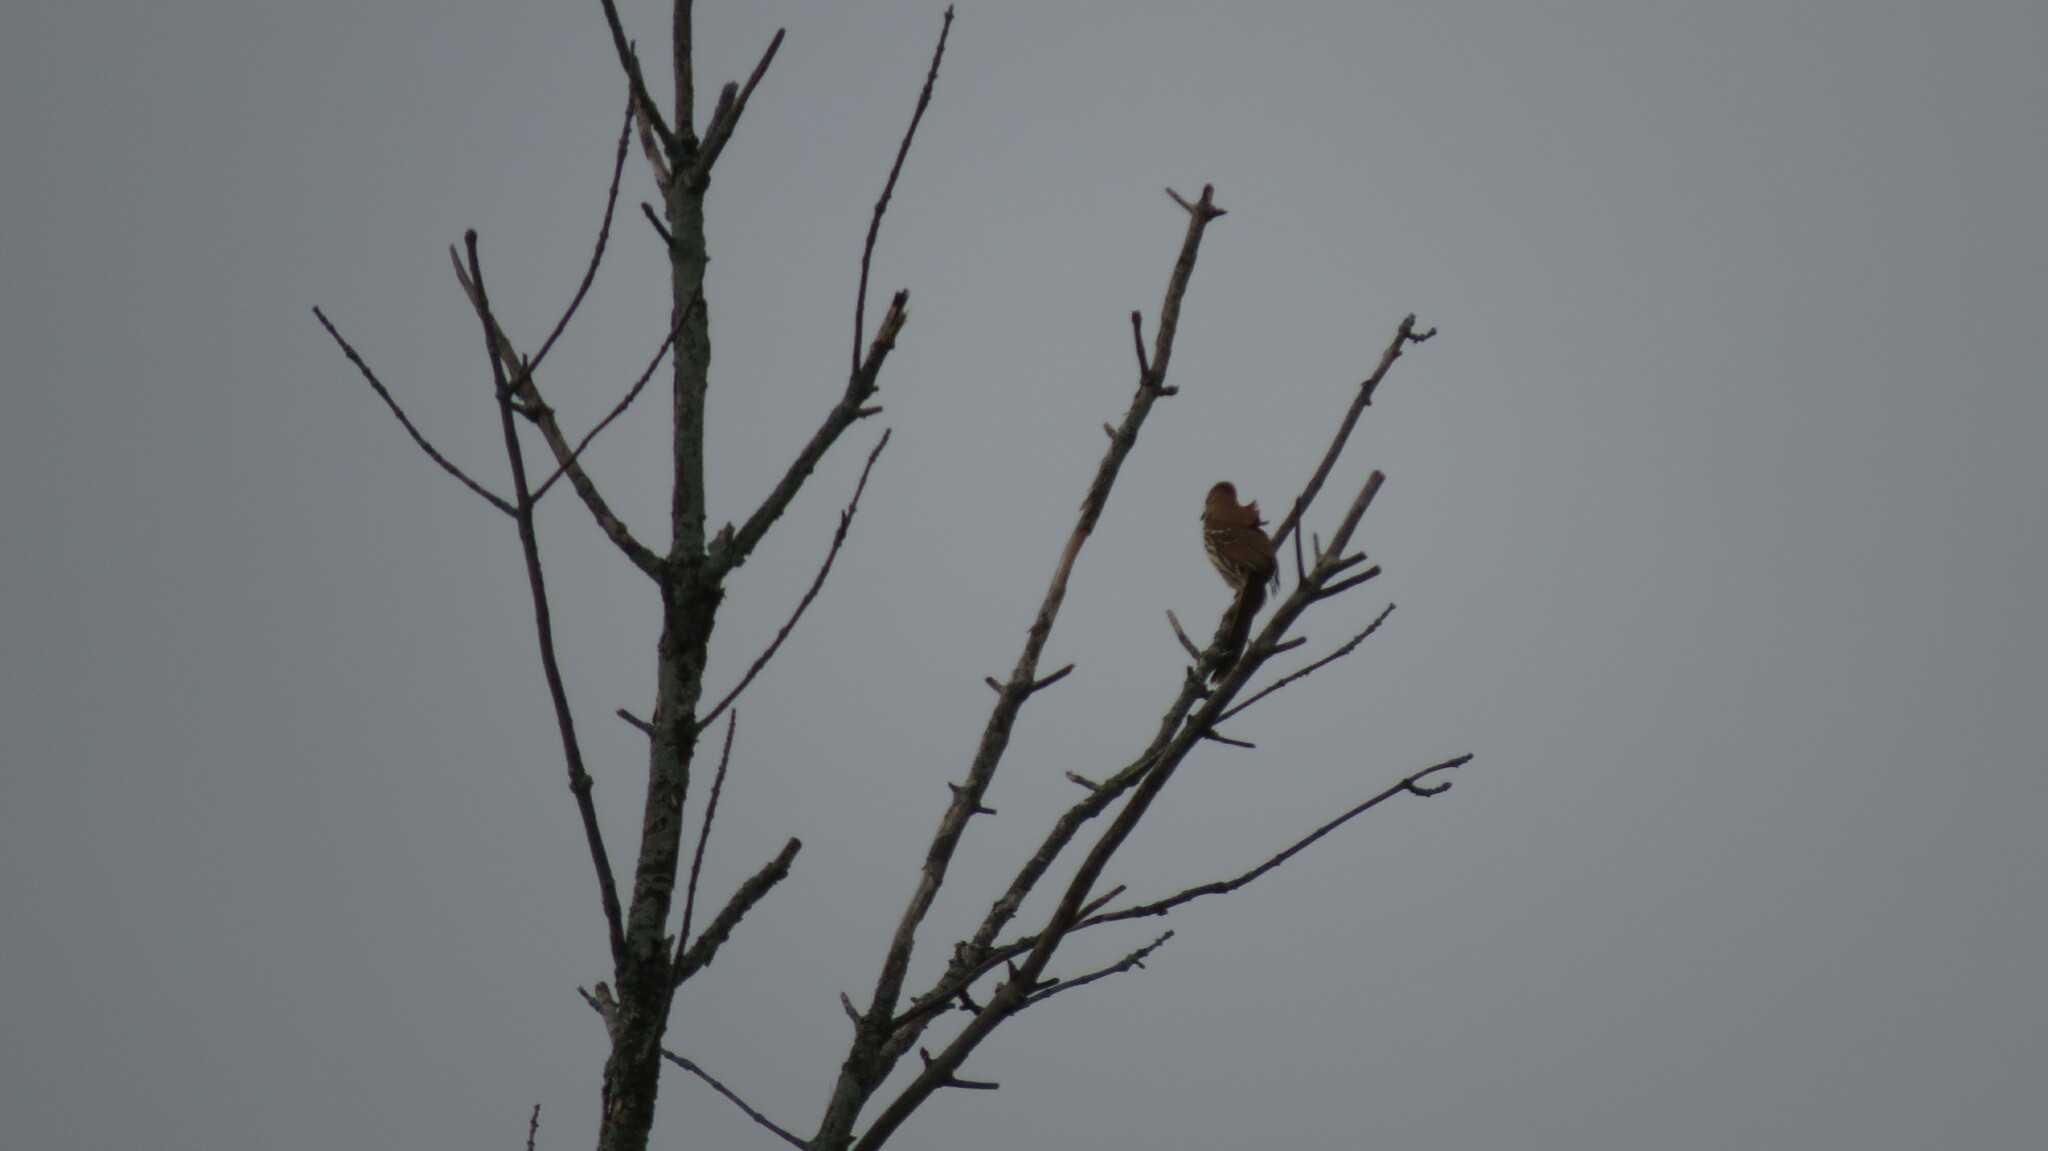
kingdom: Animalia
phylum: Chordata
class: Aves
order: Passeriformes
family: Mimidae
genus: Toxostoma
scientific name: Toxostoma rufum
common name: Brown thrasher
